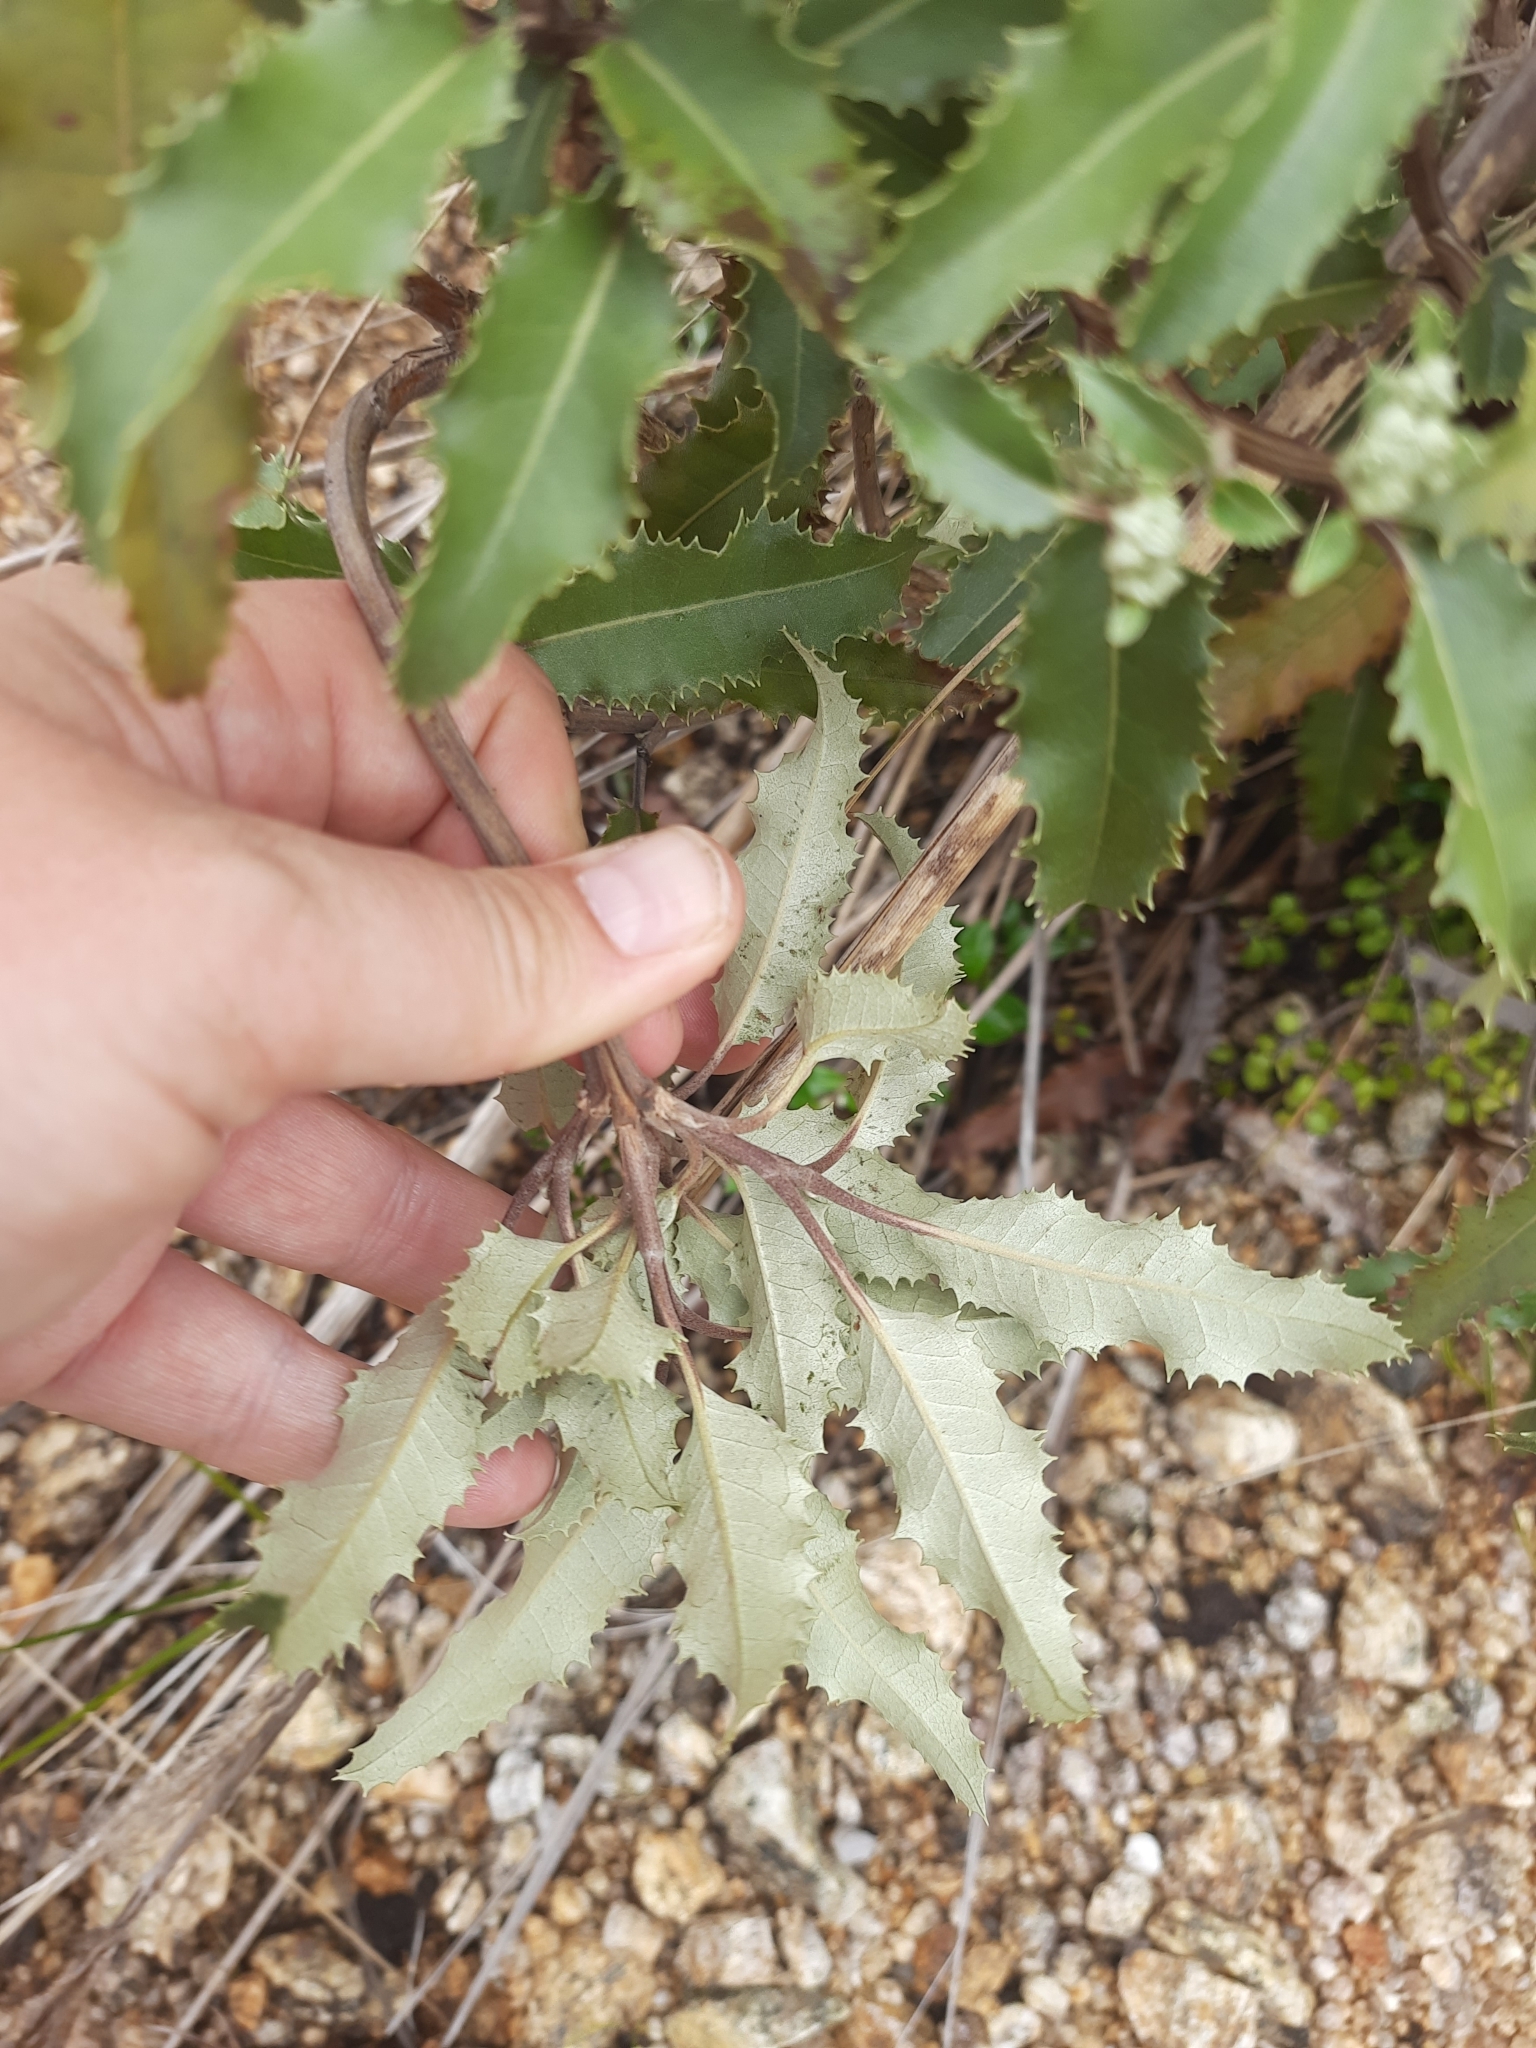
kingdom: Plantae
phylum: Tracheophyta
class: Magnoliopsida
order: Asterales
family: Asteraceae
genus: Olearia
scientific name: Olearia ilicifolia
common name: Maori-holly
